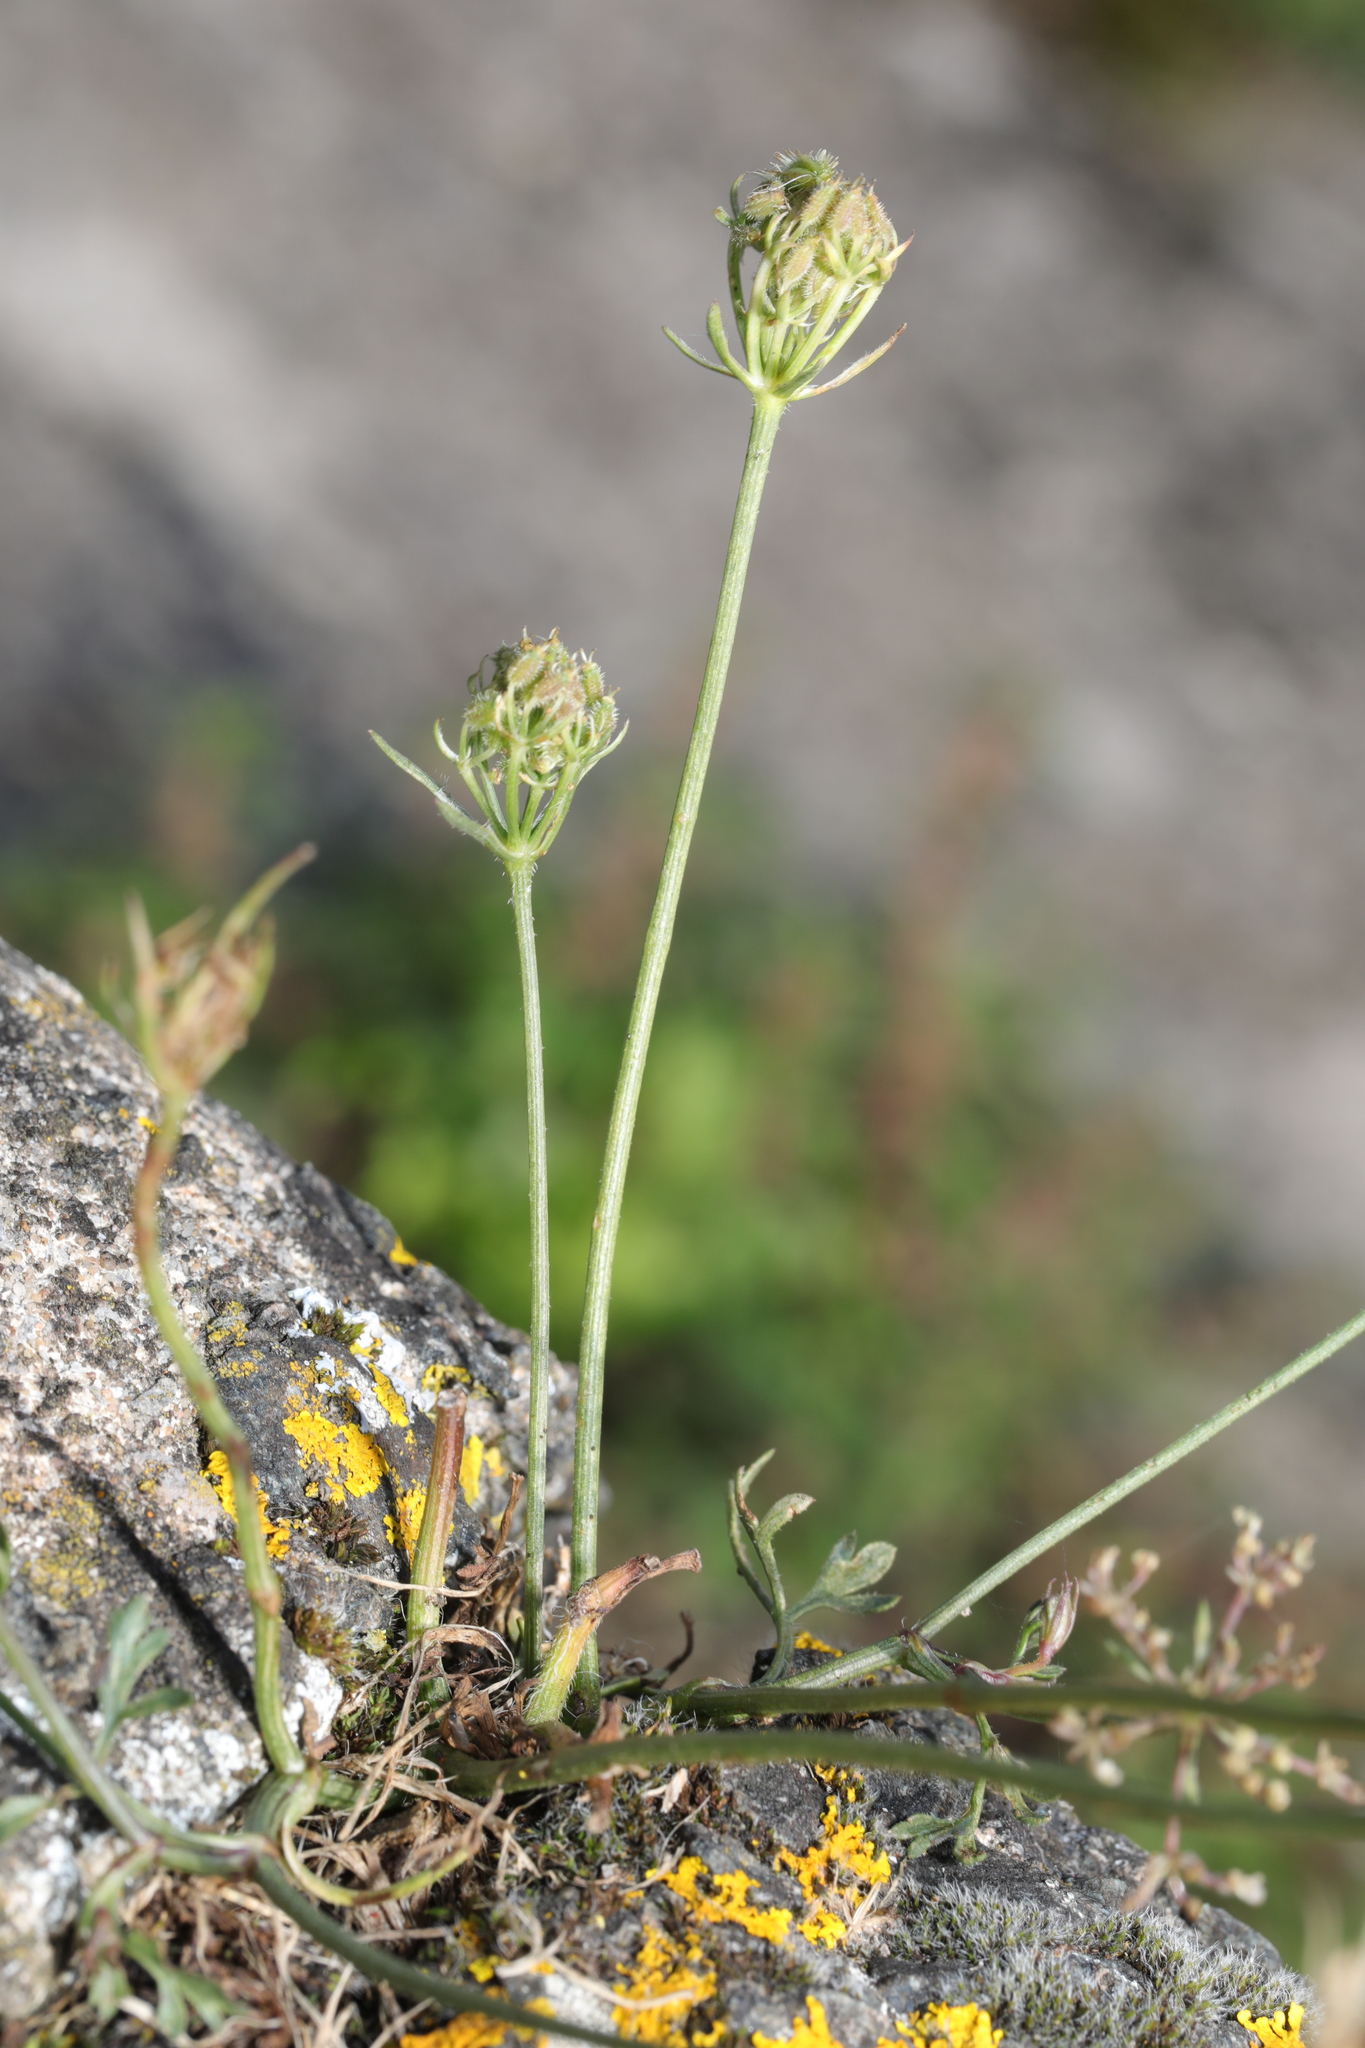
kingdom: Plantae
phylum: Tracheophyta
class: Magnoliopsida
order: Apiales
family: Apiaceae
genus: Daucus
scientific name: Daucus carota
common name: Wild carrot
